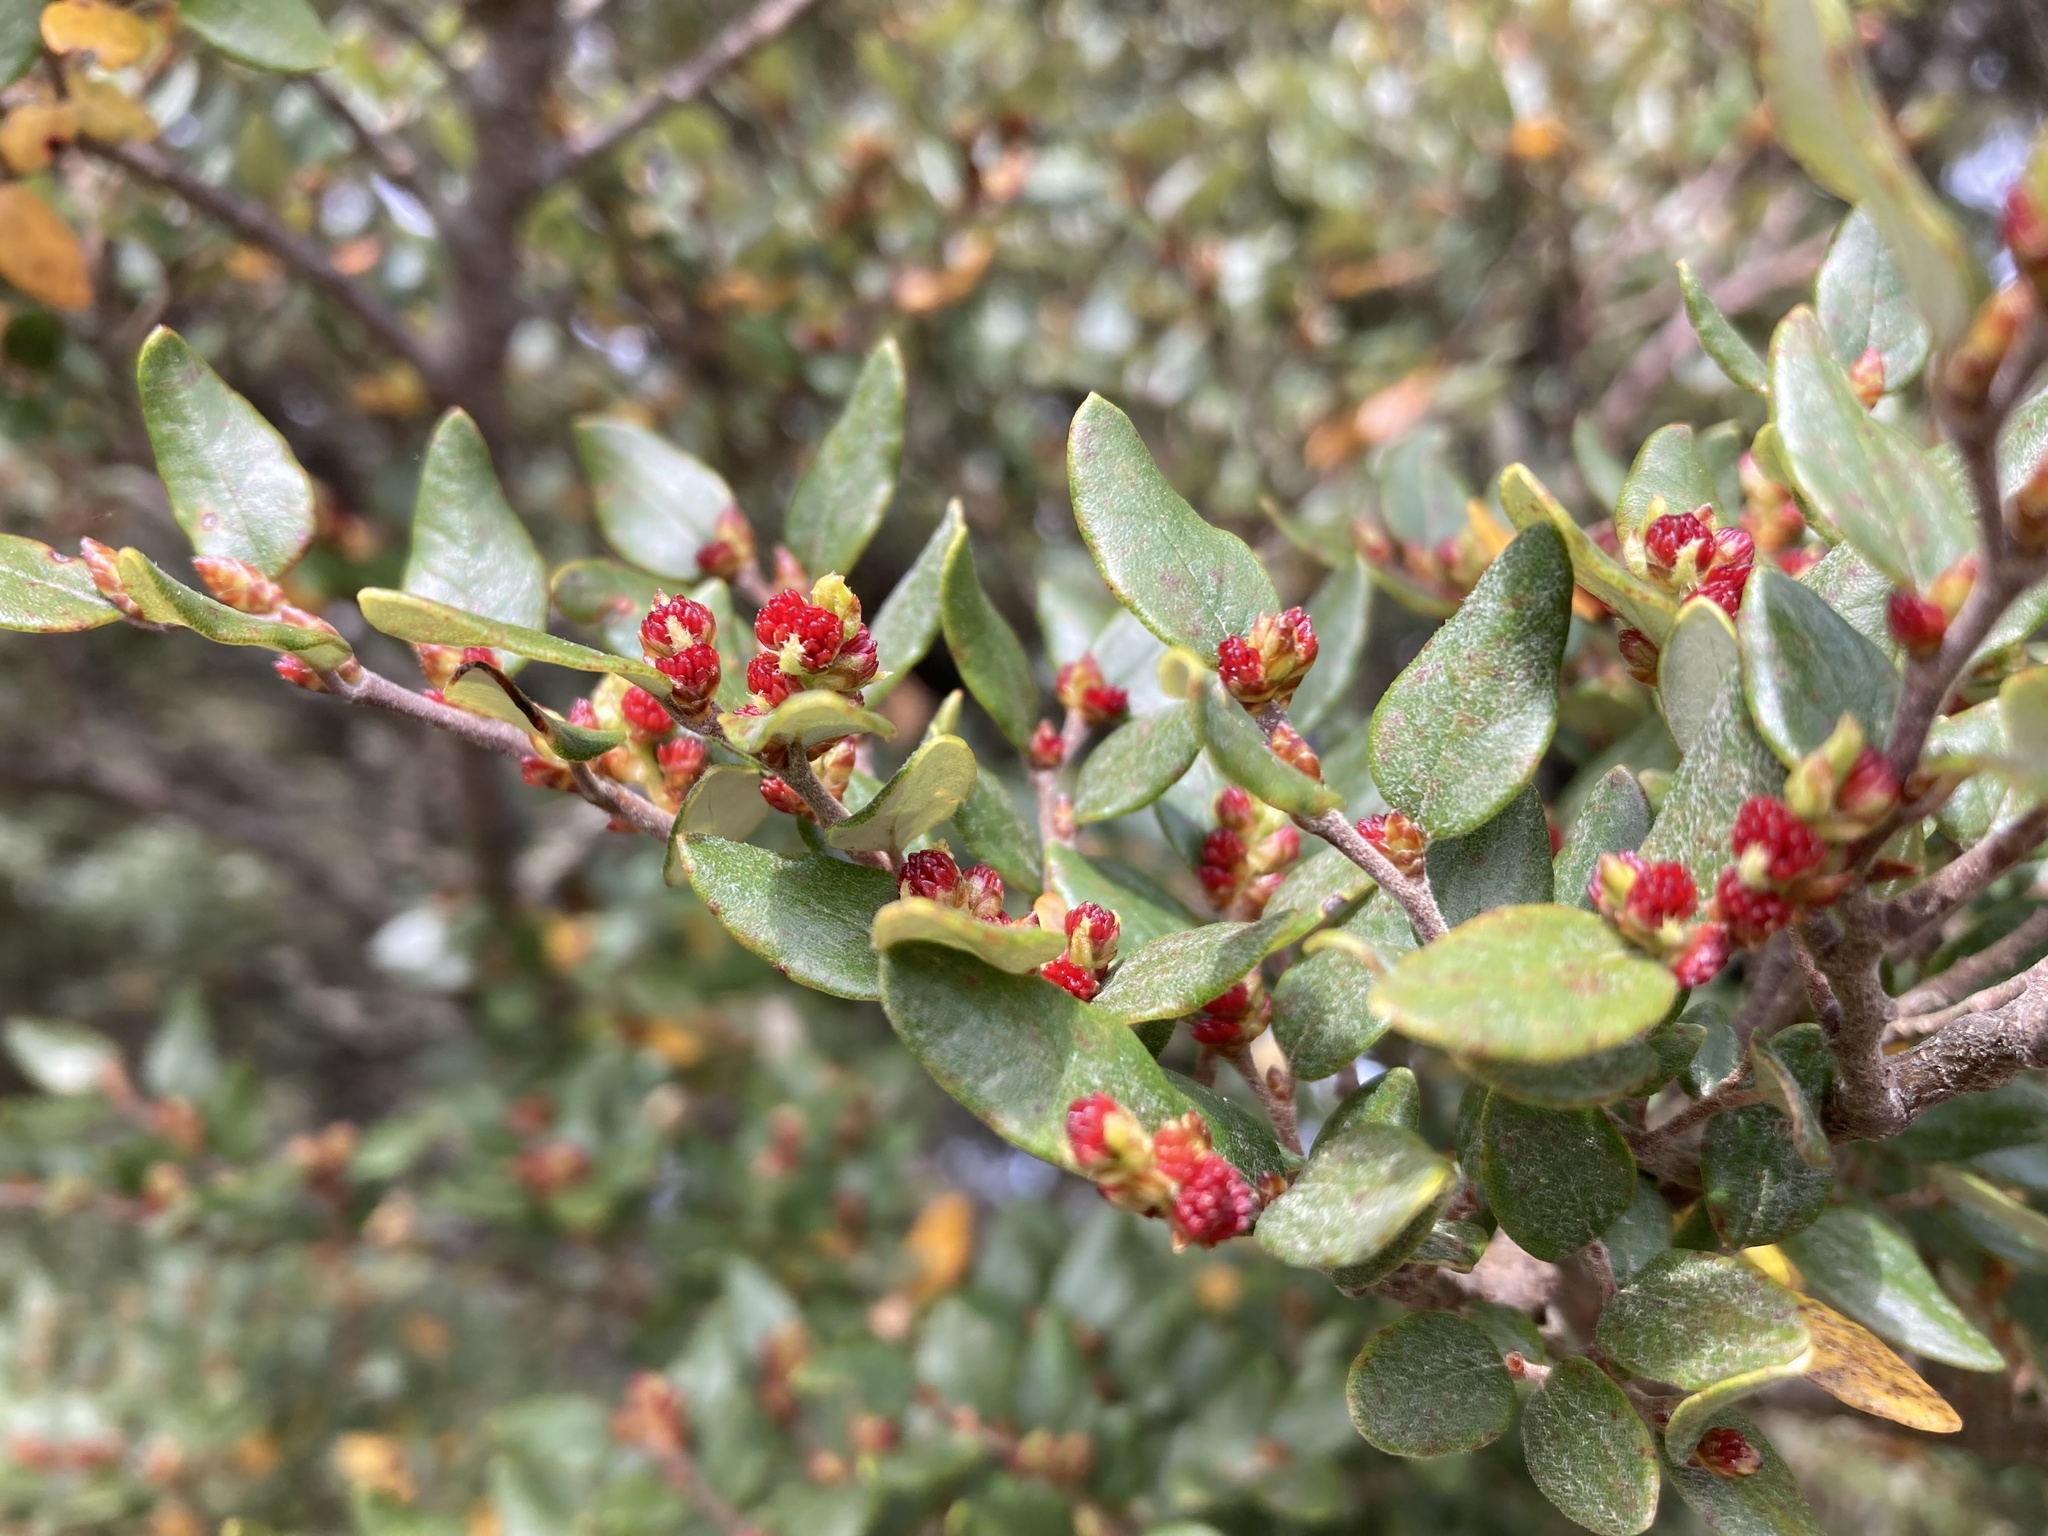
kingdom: Plantae
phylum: Tracheophyta
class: Magnoliopsida
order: Fagales
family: Nothofagaceae
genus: Nothofagus
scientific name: Nothofagus cliffortioides
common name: Mountain beech
